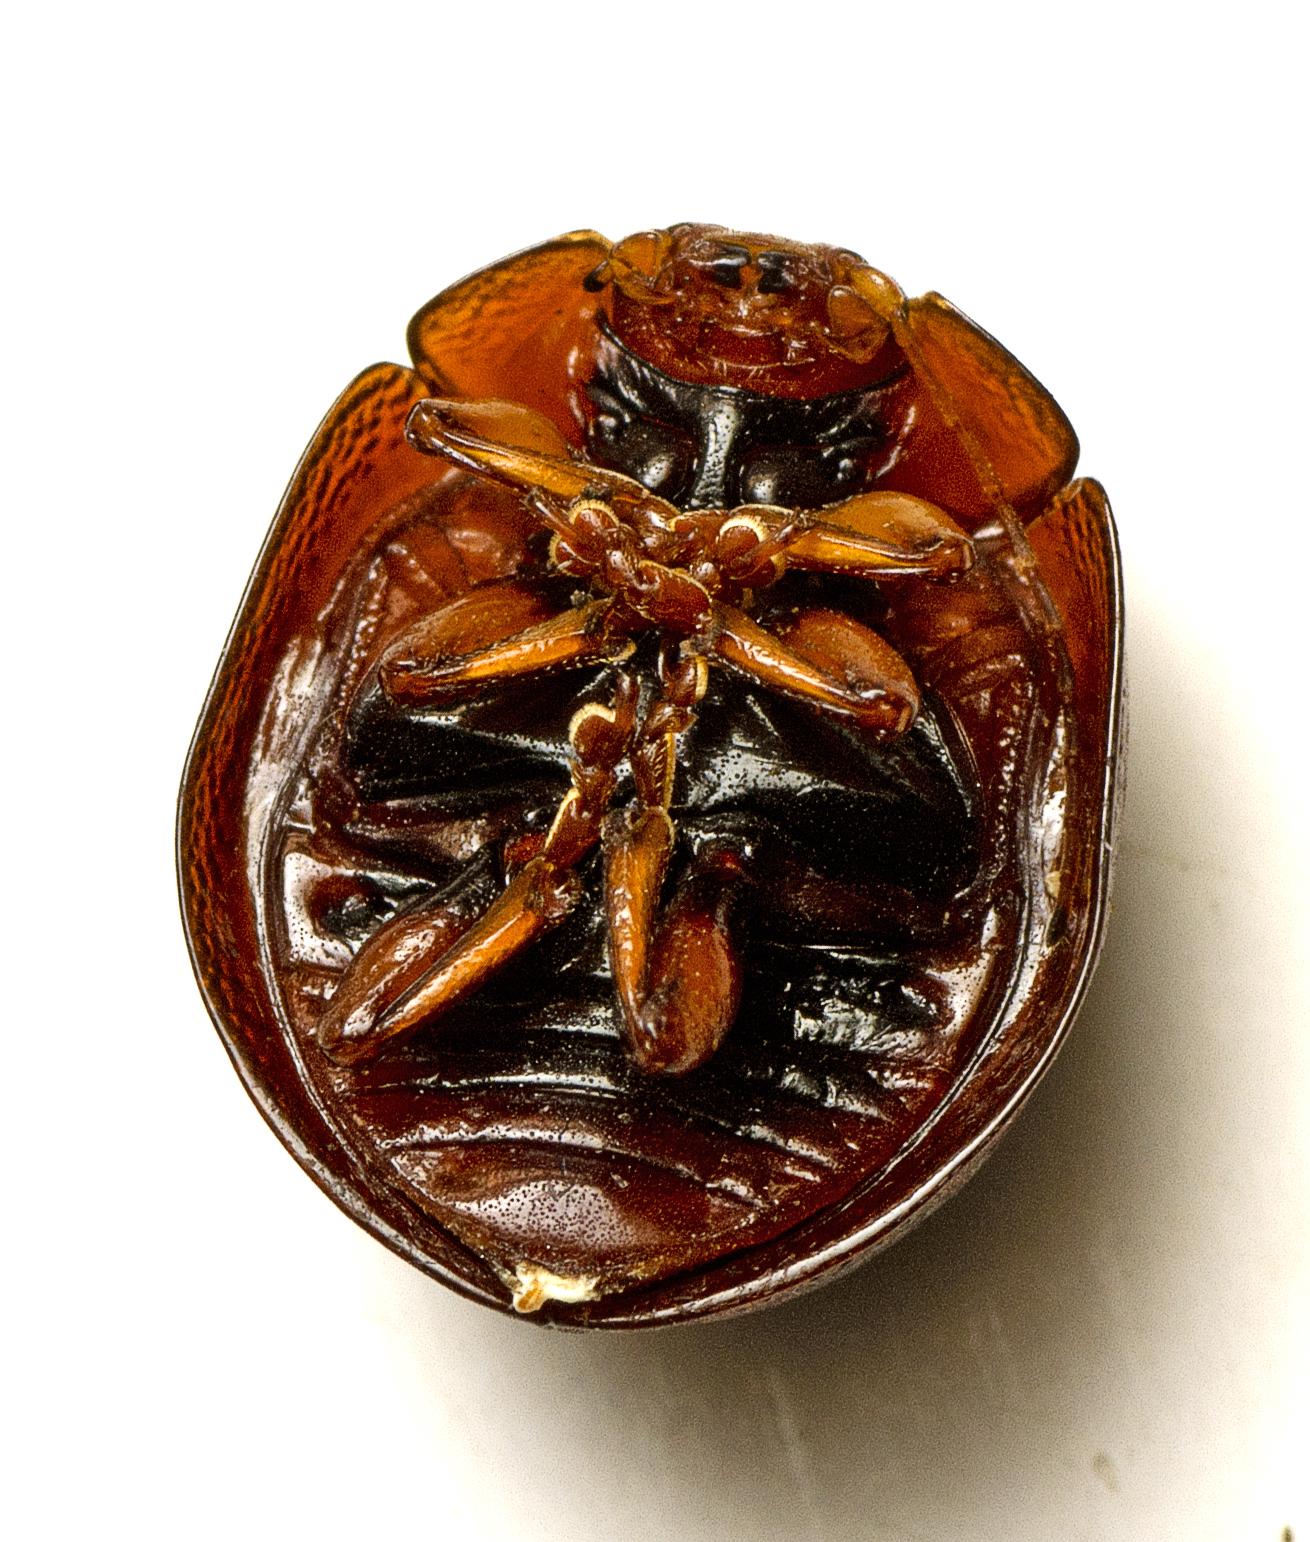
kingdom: Animalia
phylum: Arthropoda
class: Insecta
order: Coleoptera
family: Chrysomelidae
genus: Dicranosterna
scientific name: Dicranosterna
